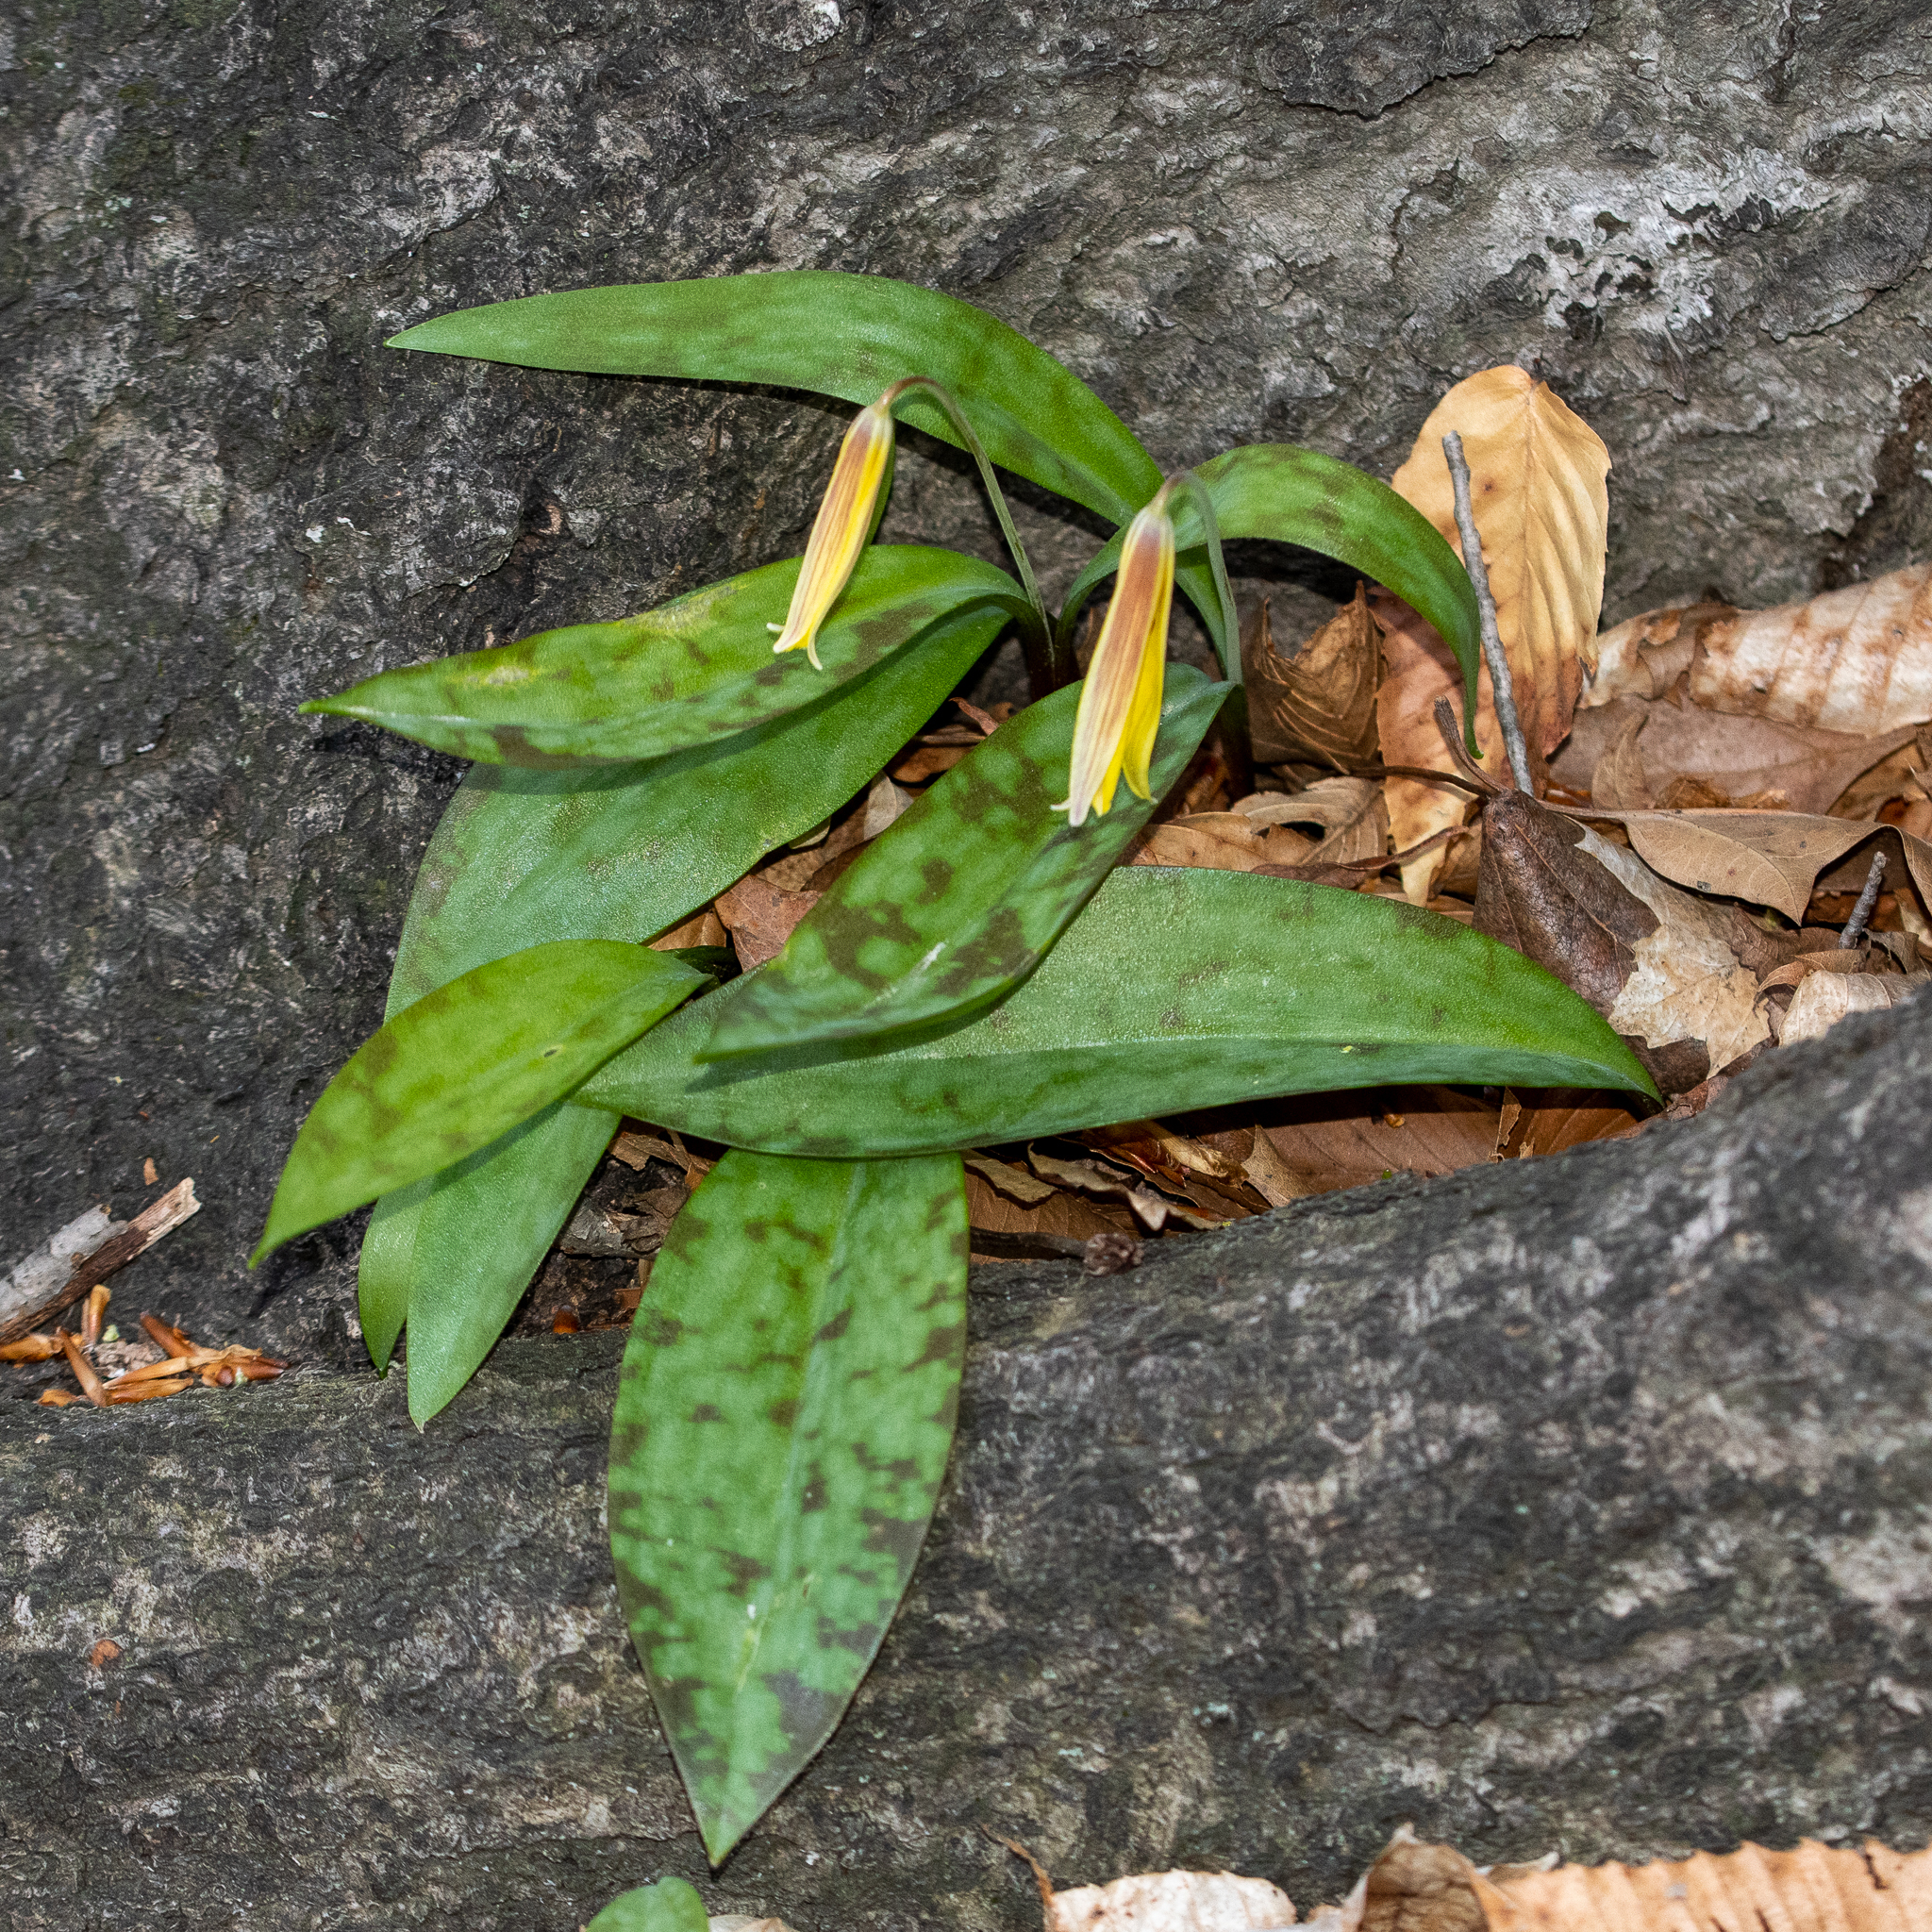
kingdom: Plantae
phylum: Tracheophyta
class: Liliopsida
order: Liliales
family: Liliaceae
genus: Erythronium
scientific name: Erythronium americanum
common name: Yellow adder's-tongue
